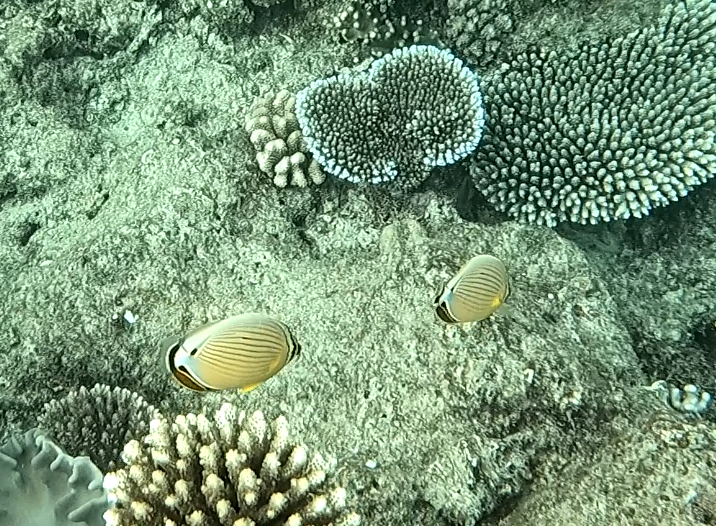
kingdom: Animalia
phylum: Chordata
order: Perciformes
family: Chaetodontidae
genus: Chaetodon
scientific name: Chaetodon lunulatus
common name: Redfin butterflyfish
